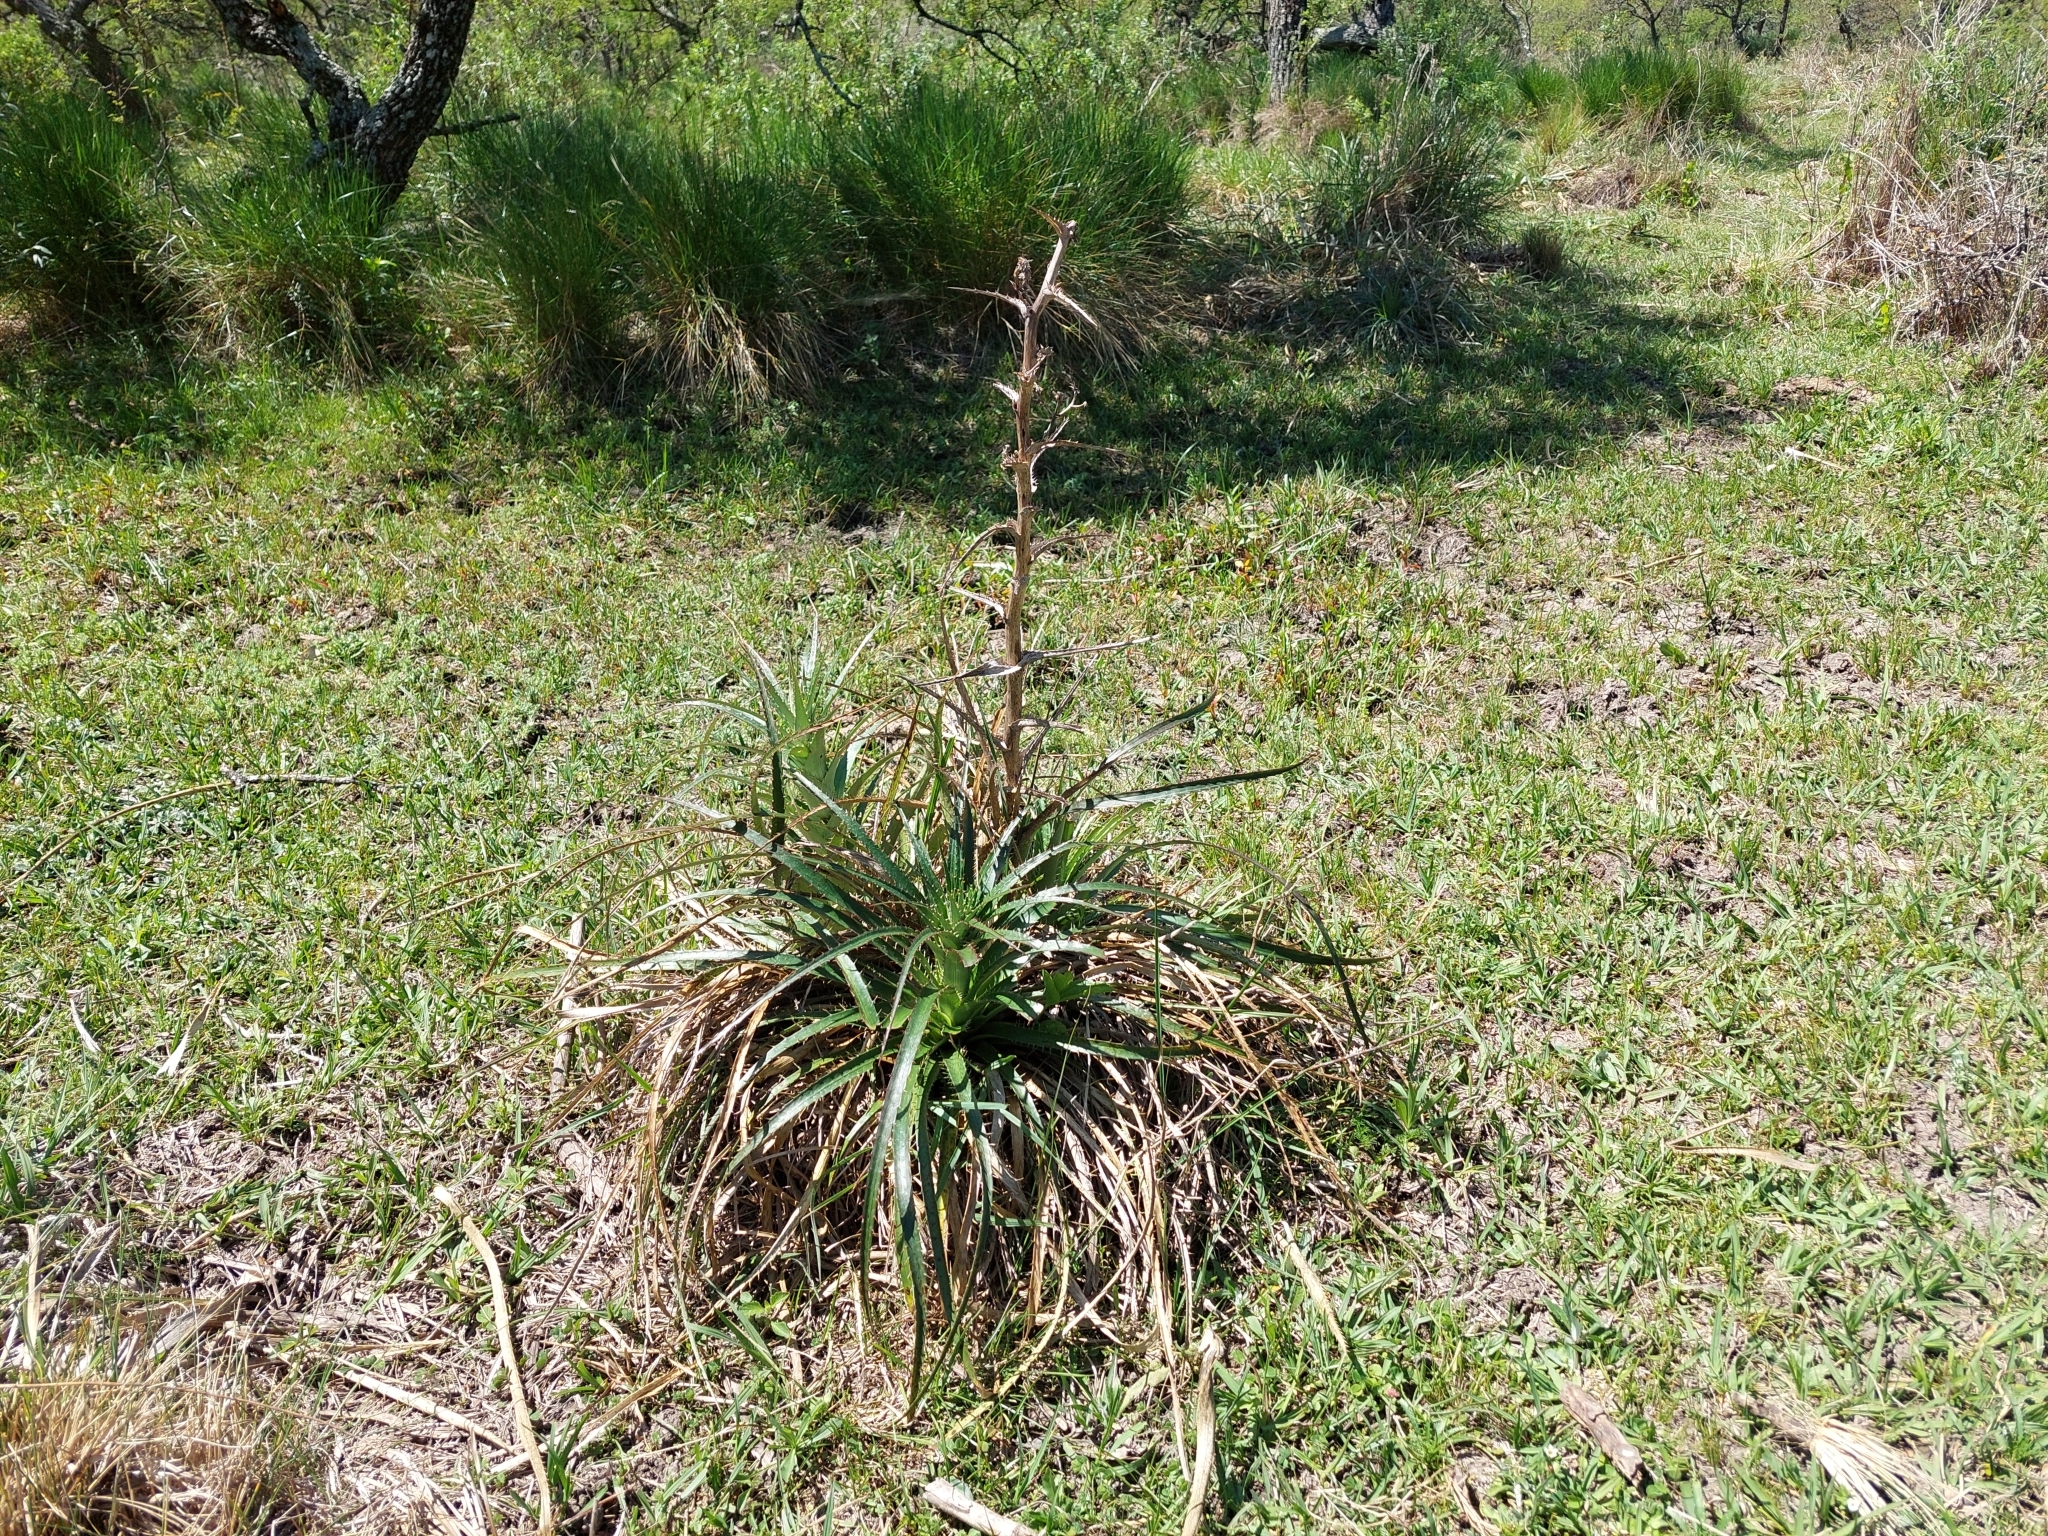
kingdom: Plantae
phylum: Tracheophyta
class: Magnoliopsida
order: Apiales
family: Apiaceae
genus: Eryngium
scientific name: Eryngium horridum
